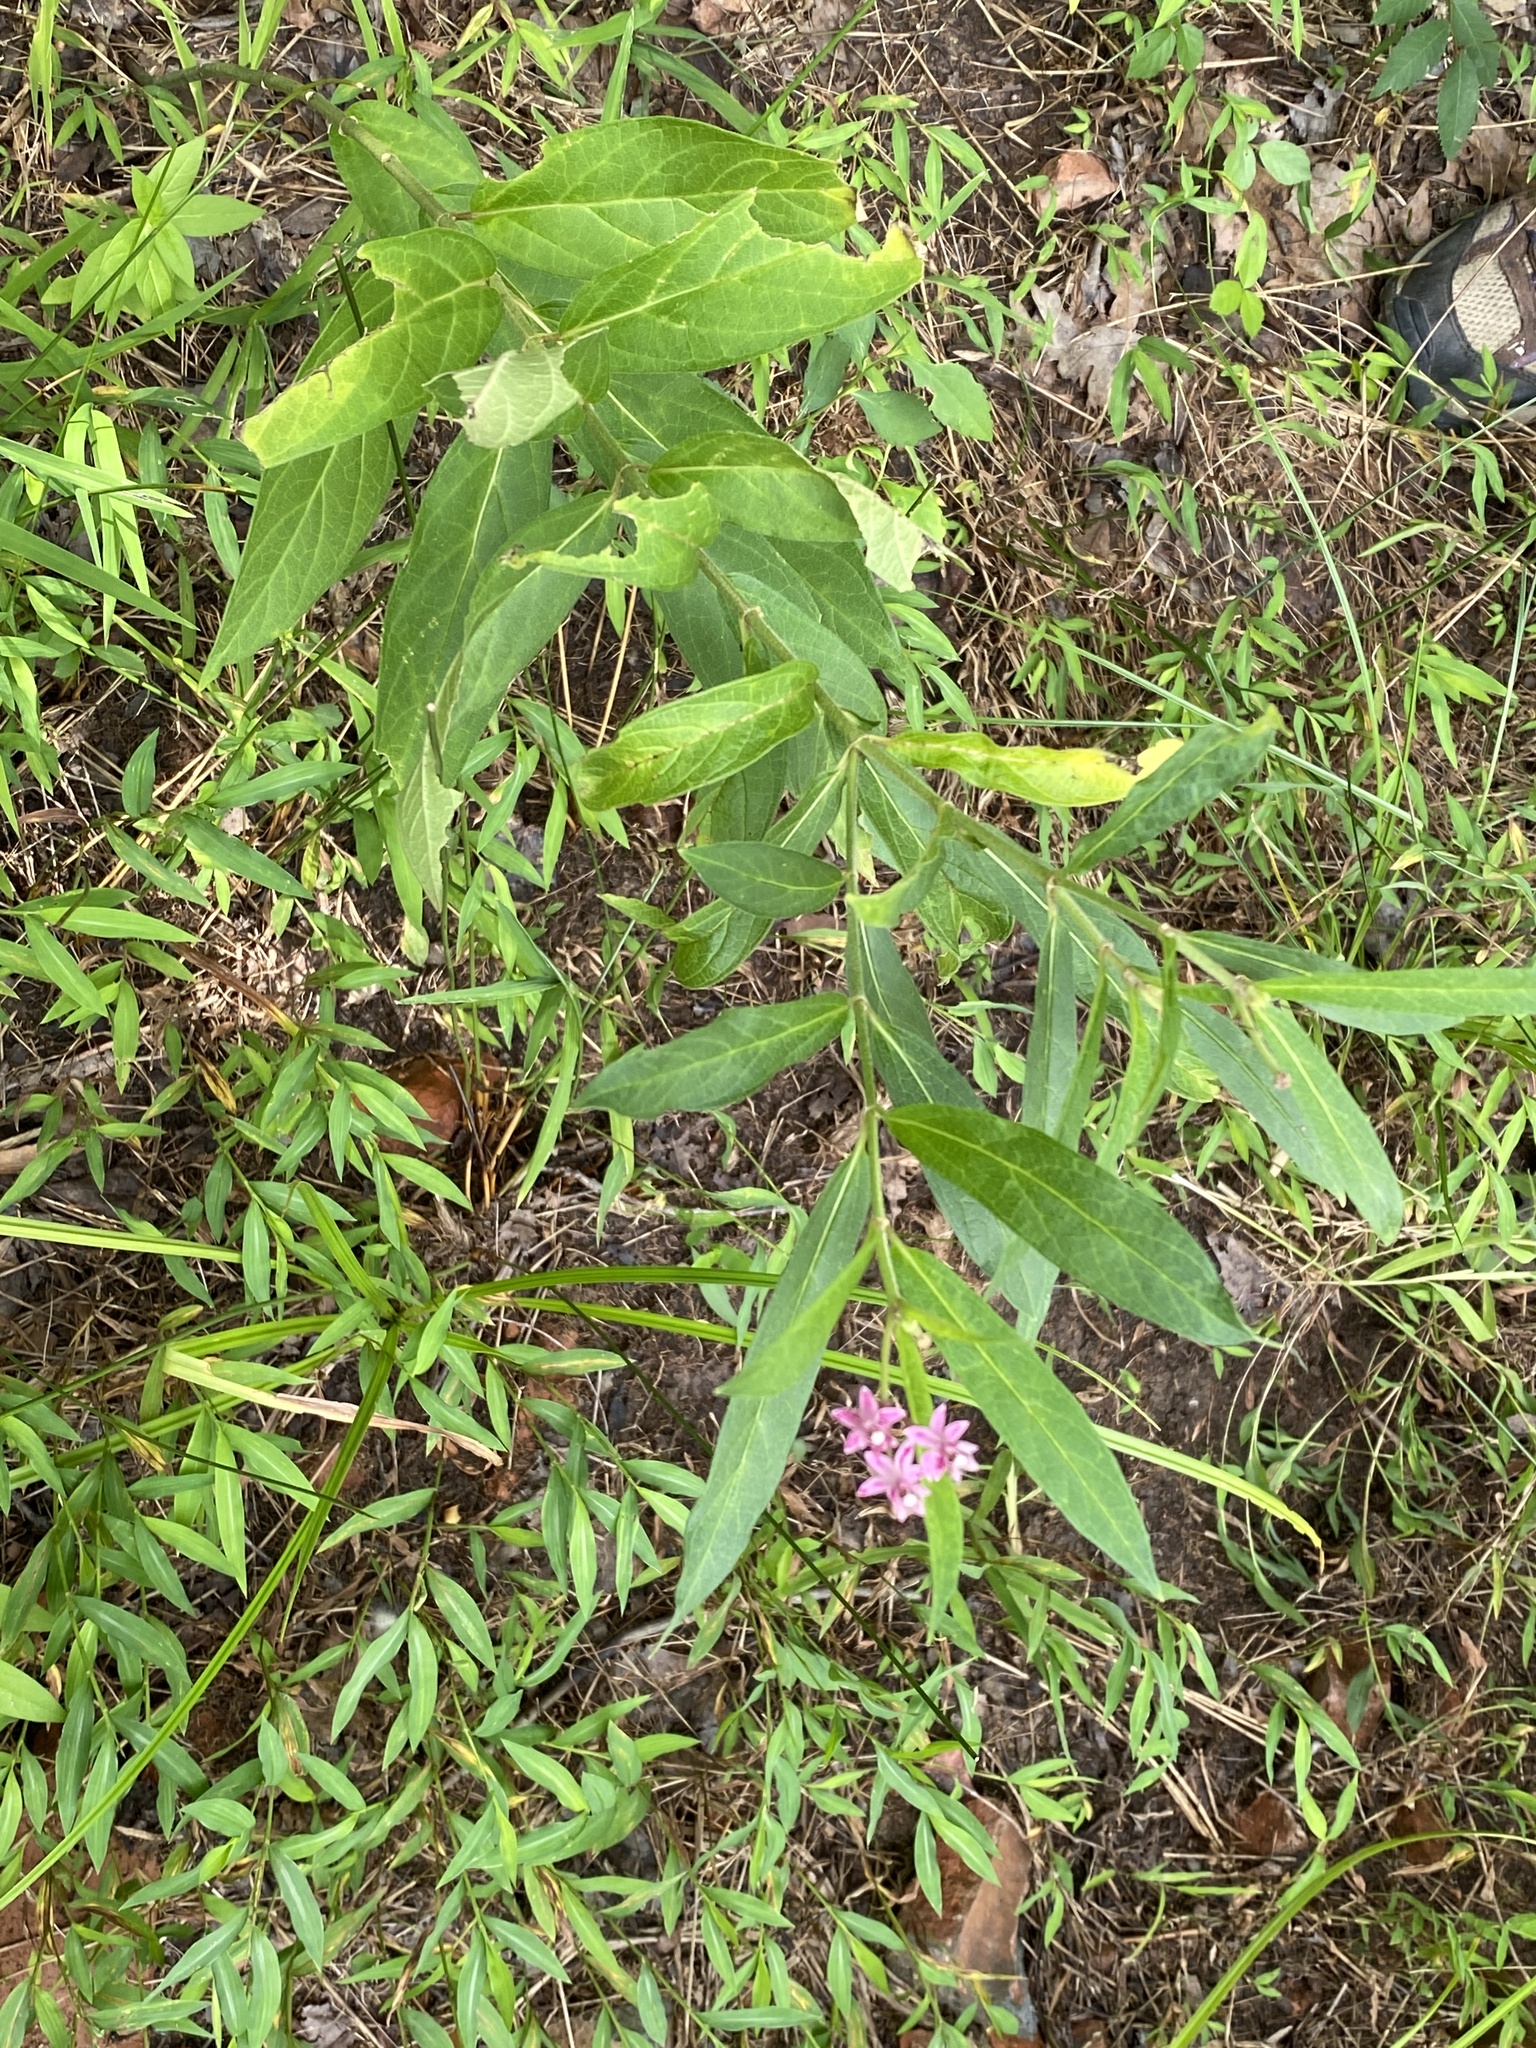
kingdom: Plantae
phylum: Tracheophyta
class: Magnoliopsida
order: Gentianales
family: Apocynaceae
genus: Asclepias
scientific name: Asclepias incarnata
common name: Swamp milkweed
